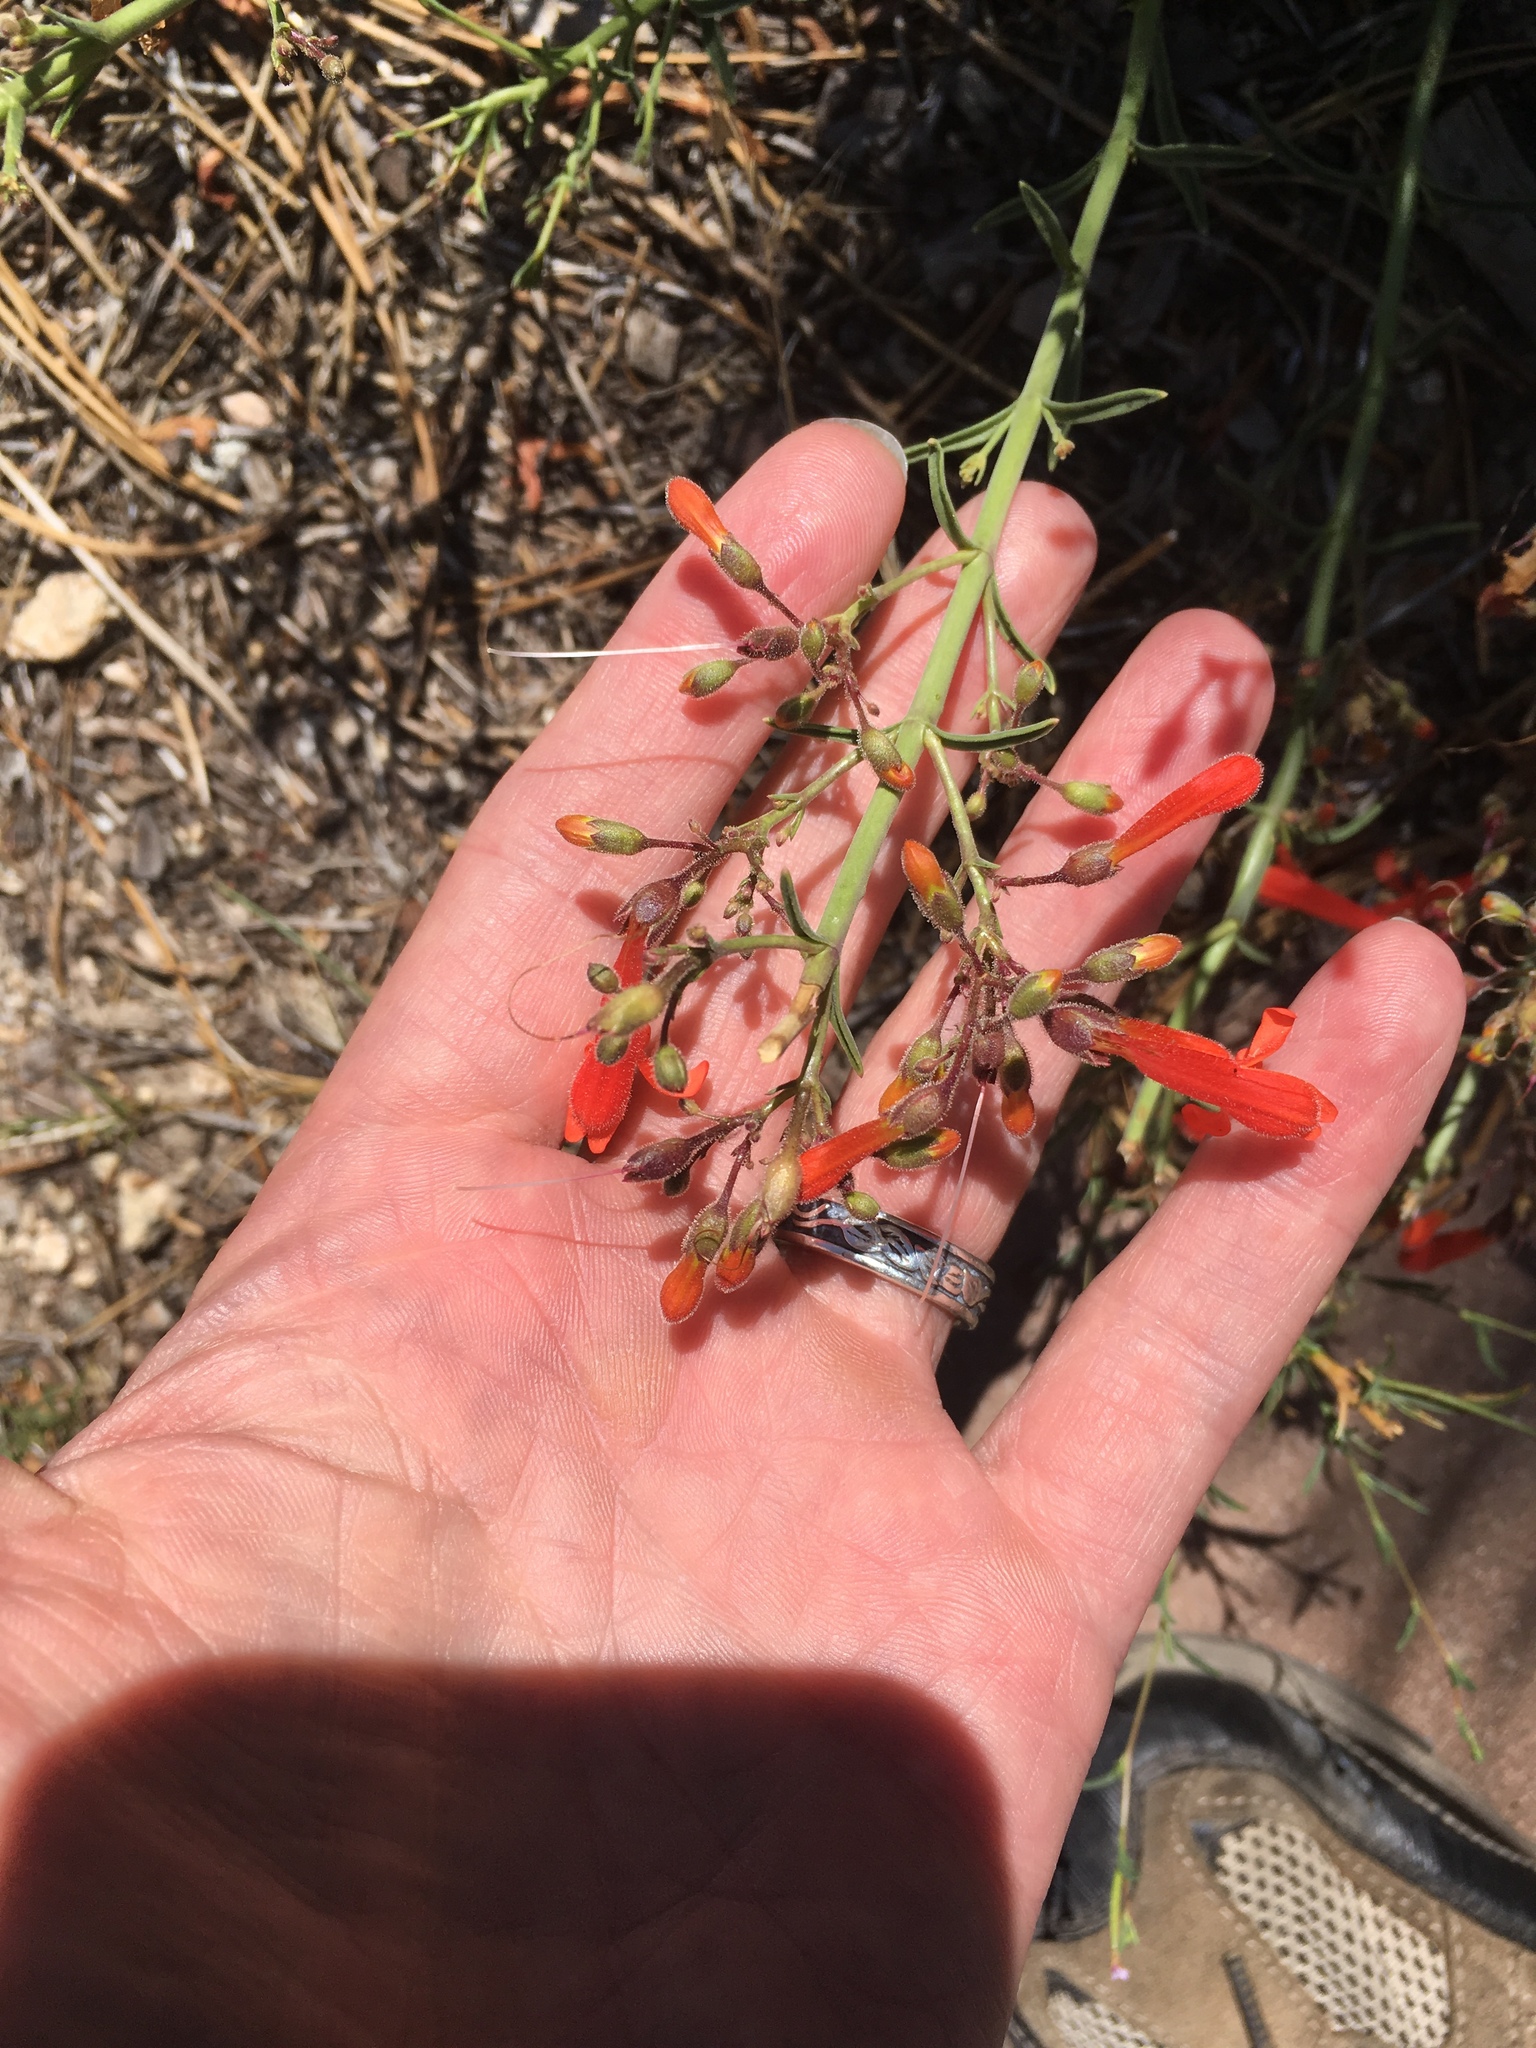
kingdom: Plantae
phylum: Tracheophyta
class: Magnoliopsida
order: Myrtales
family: Onagraceae
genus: Epilobium
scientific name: Epilobium canum
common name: California-fuchsia
